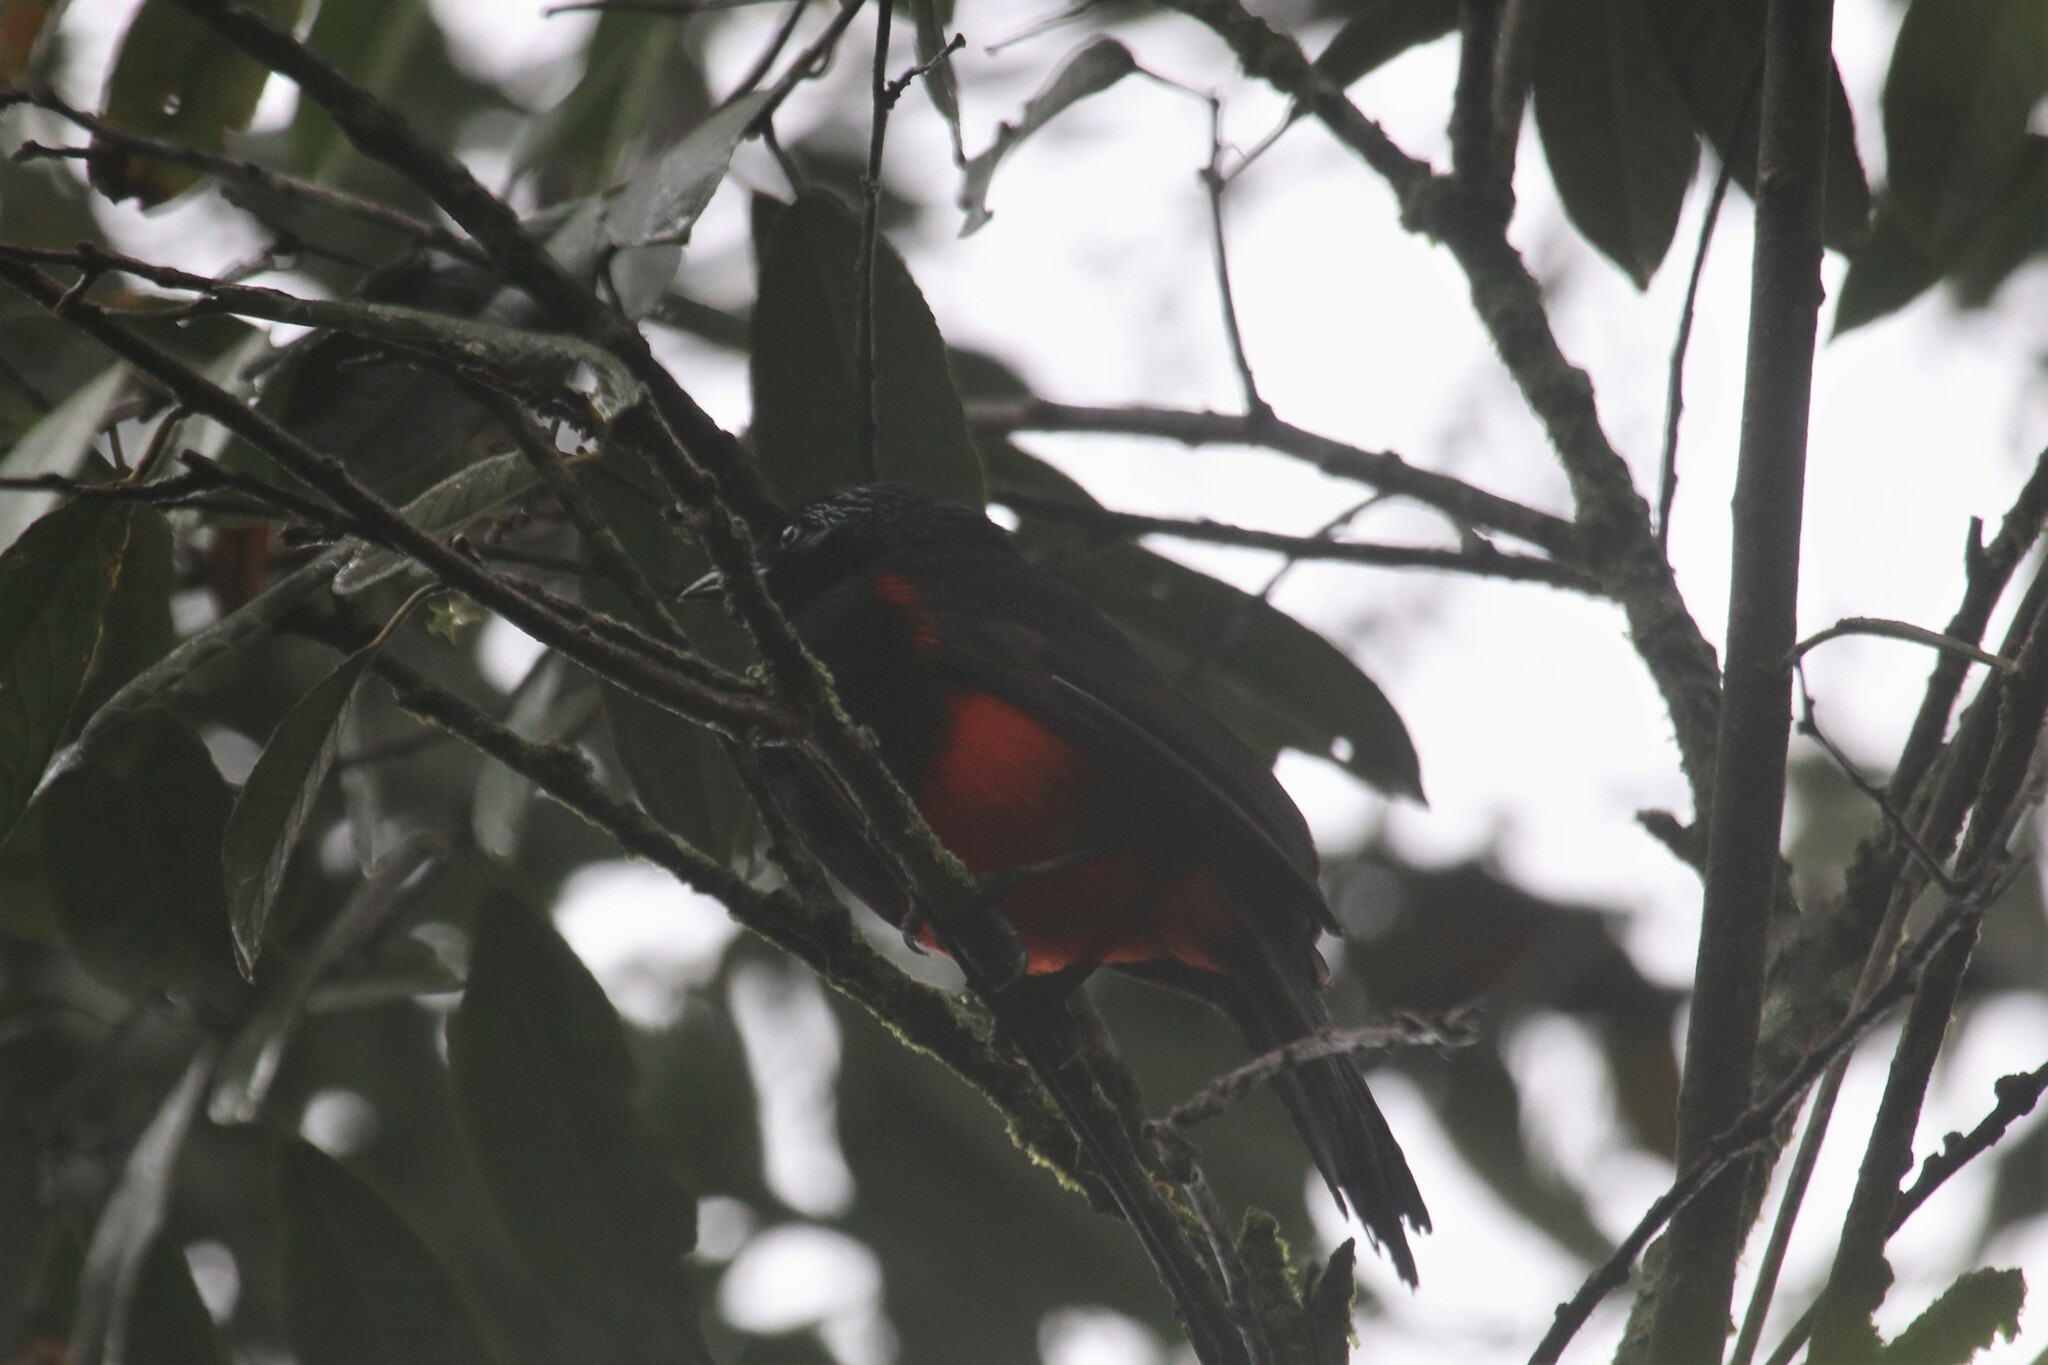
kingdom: Animalia
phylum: Chordata
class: Aves
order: Passeriformes
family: Icteridae
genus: Hypopyrrhus
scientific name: Hypopyrrhus pyrohypogaster
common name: Red-bellied grackle
